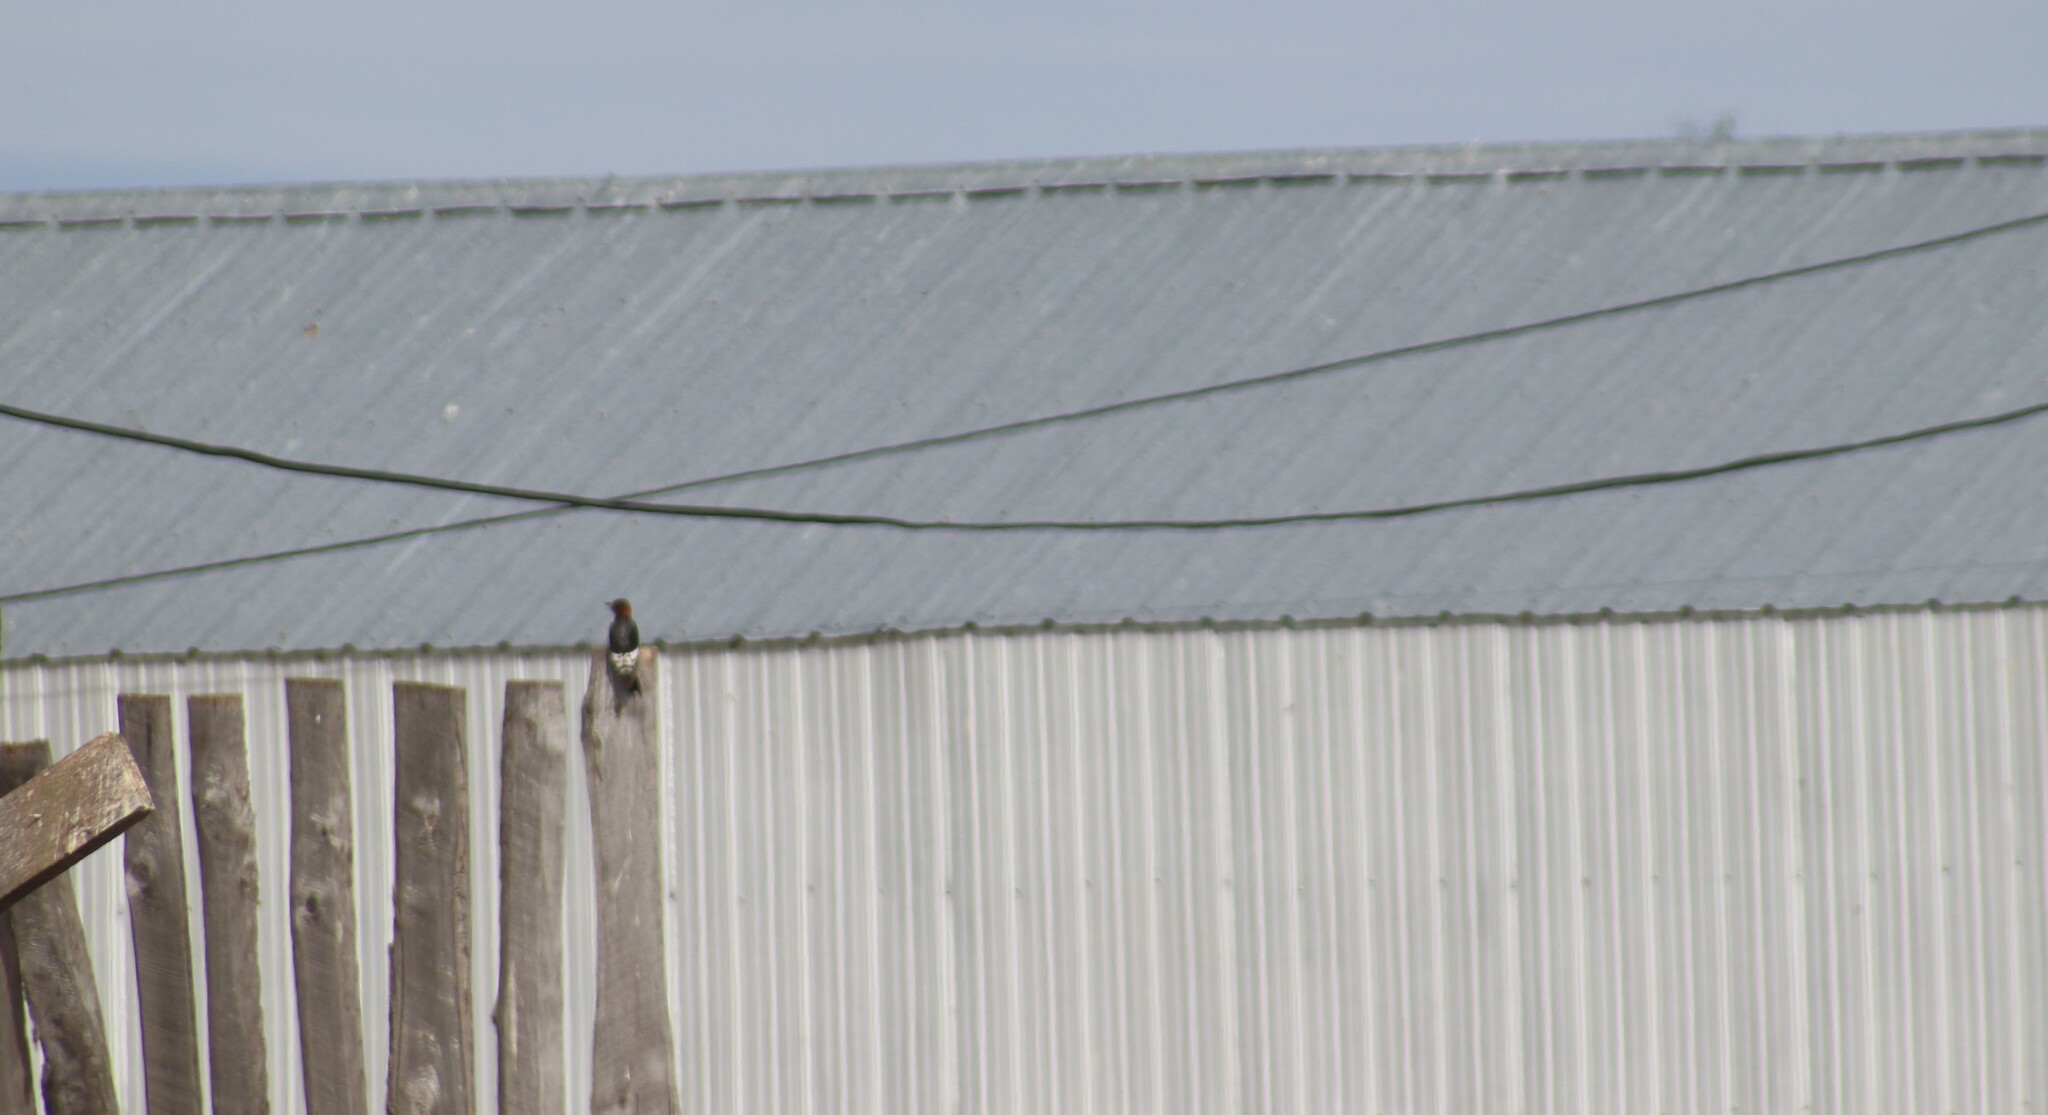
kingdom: Animalia
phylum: Chordata
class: Aves
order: Piciformes
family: Picidae
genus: Melanerpes
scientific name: Melanerpes erythrocephalus
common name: Red-headed woodpecker
